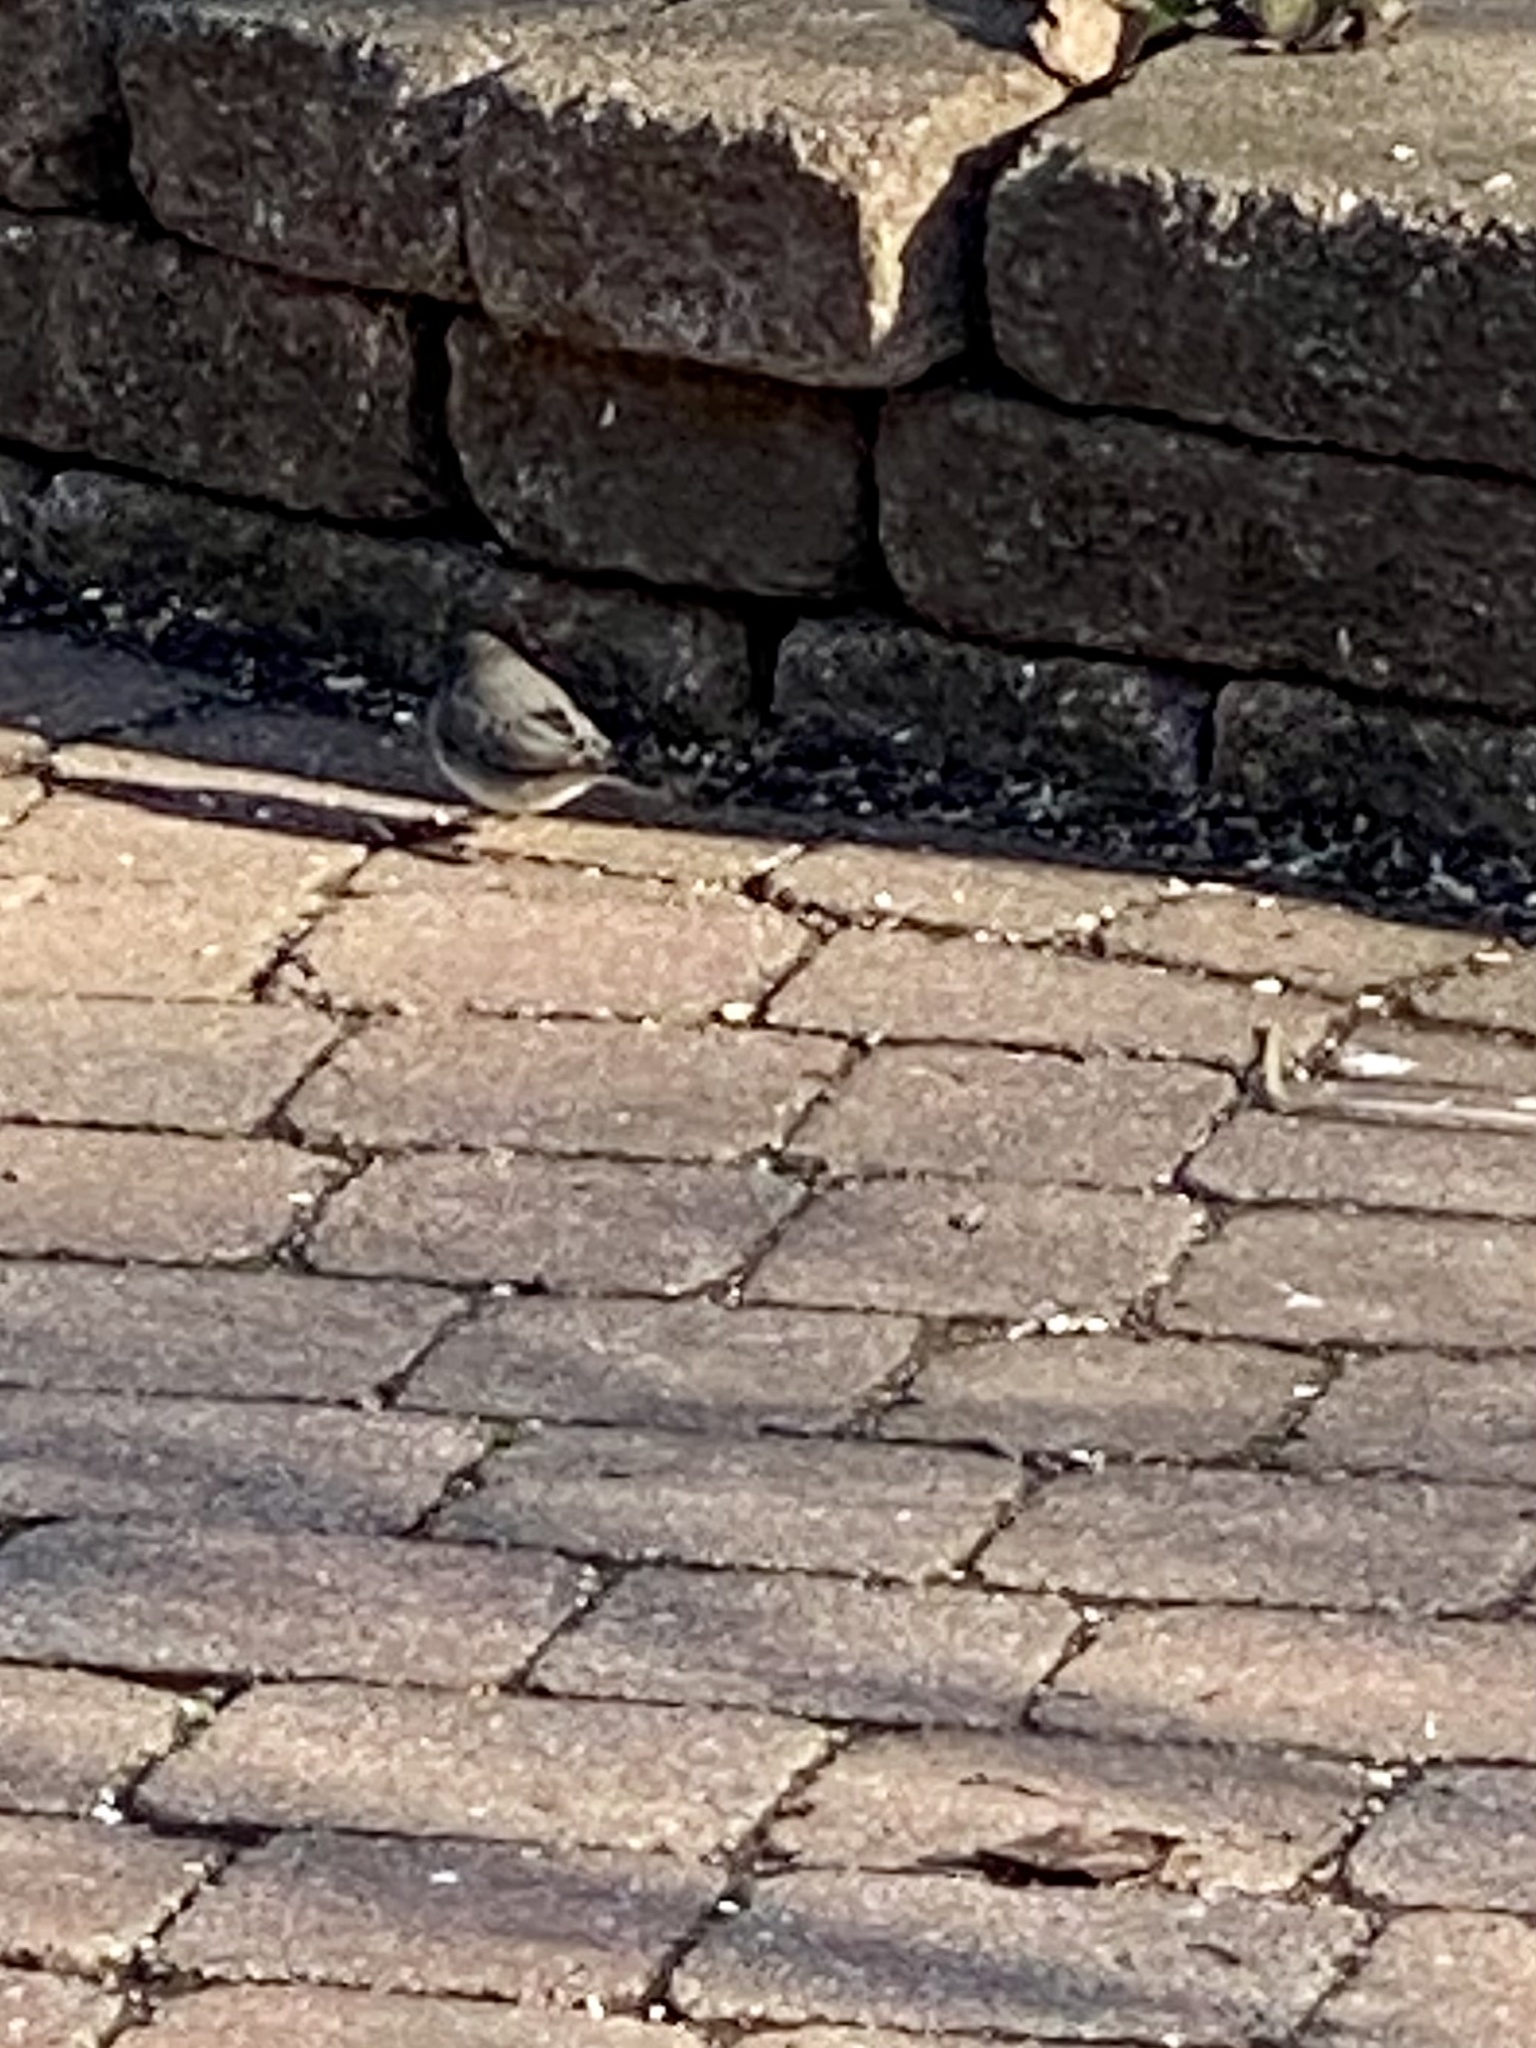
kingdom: Animalia
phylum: Chordata
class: Aves
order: Passeriformes
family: Passerellidae
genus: Junco
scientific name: Junco hyemalis
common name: Dark-eyed junco
